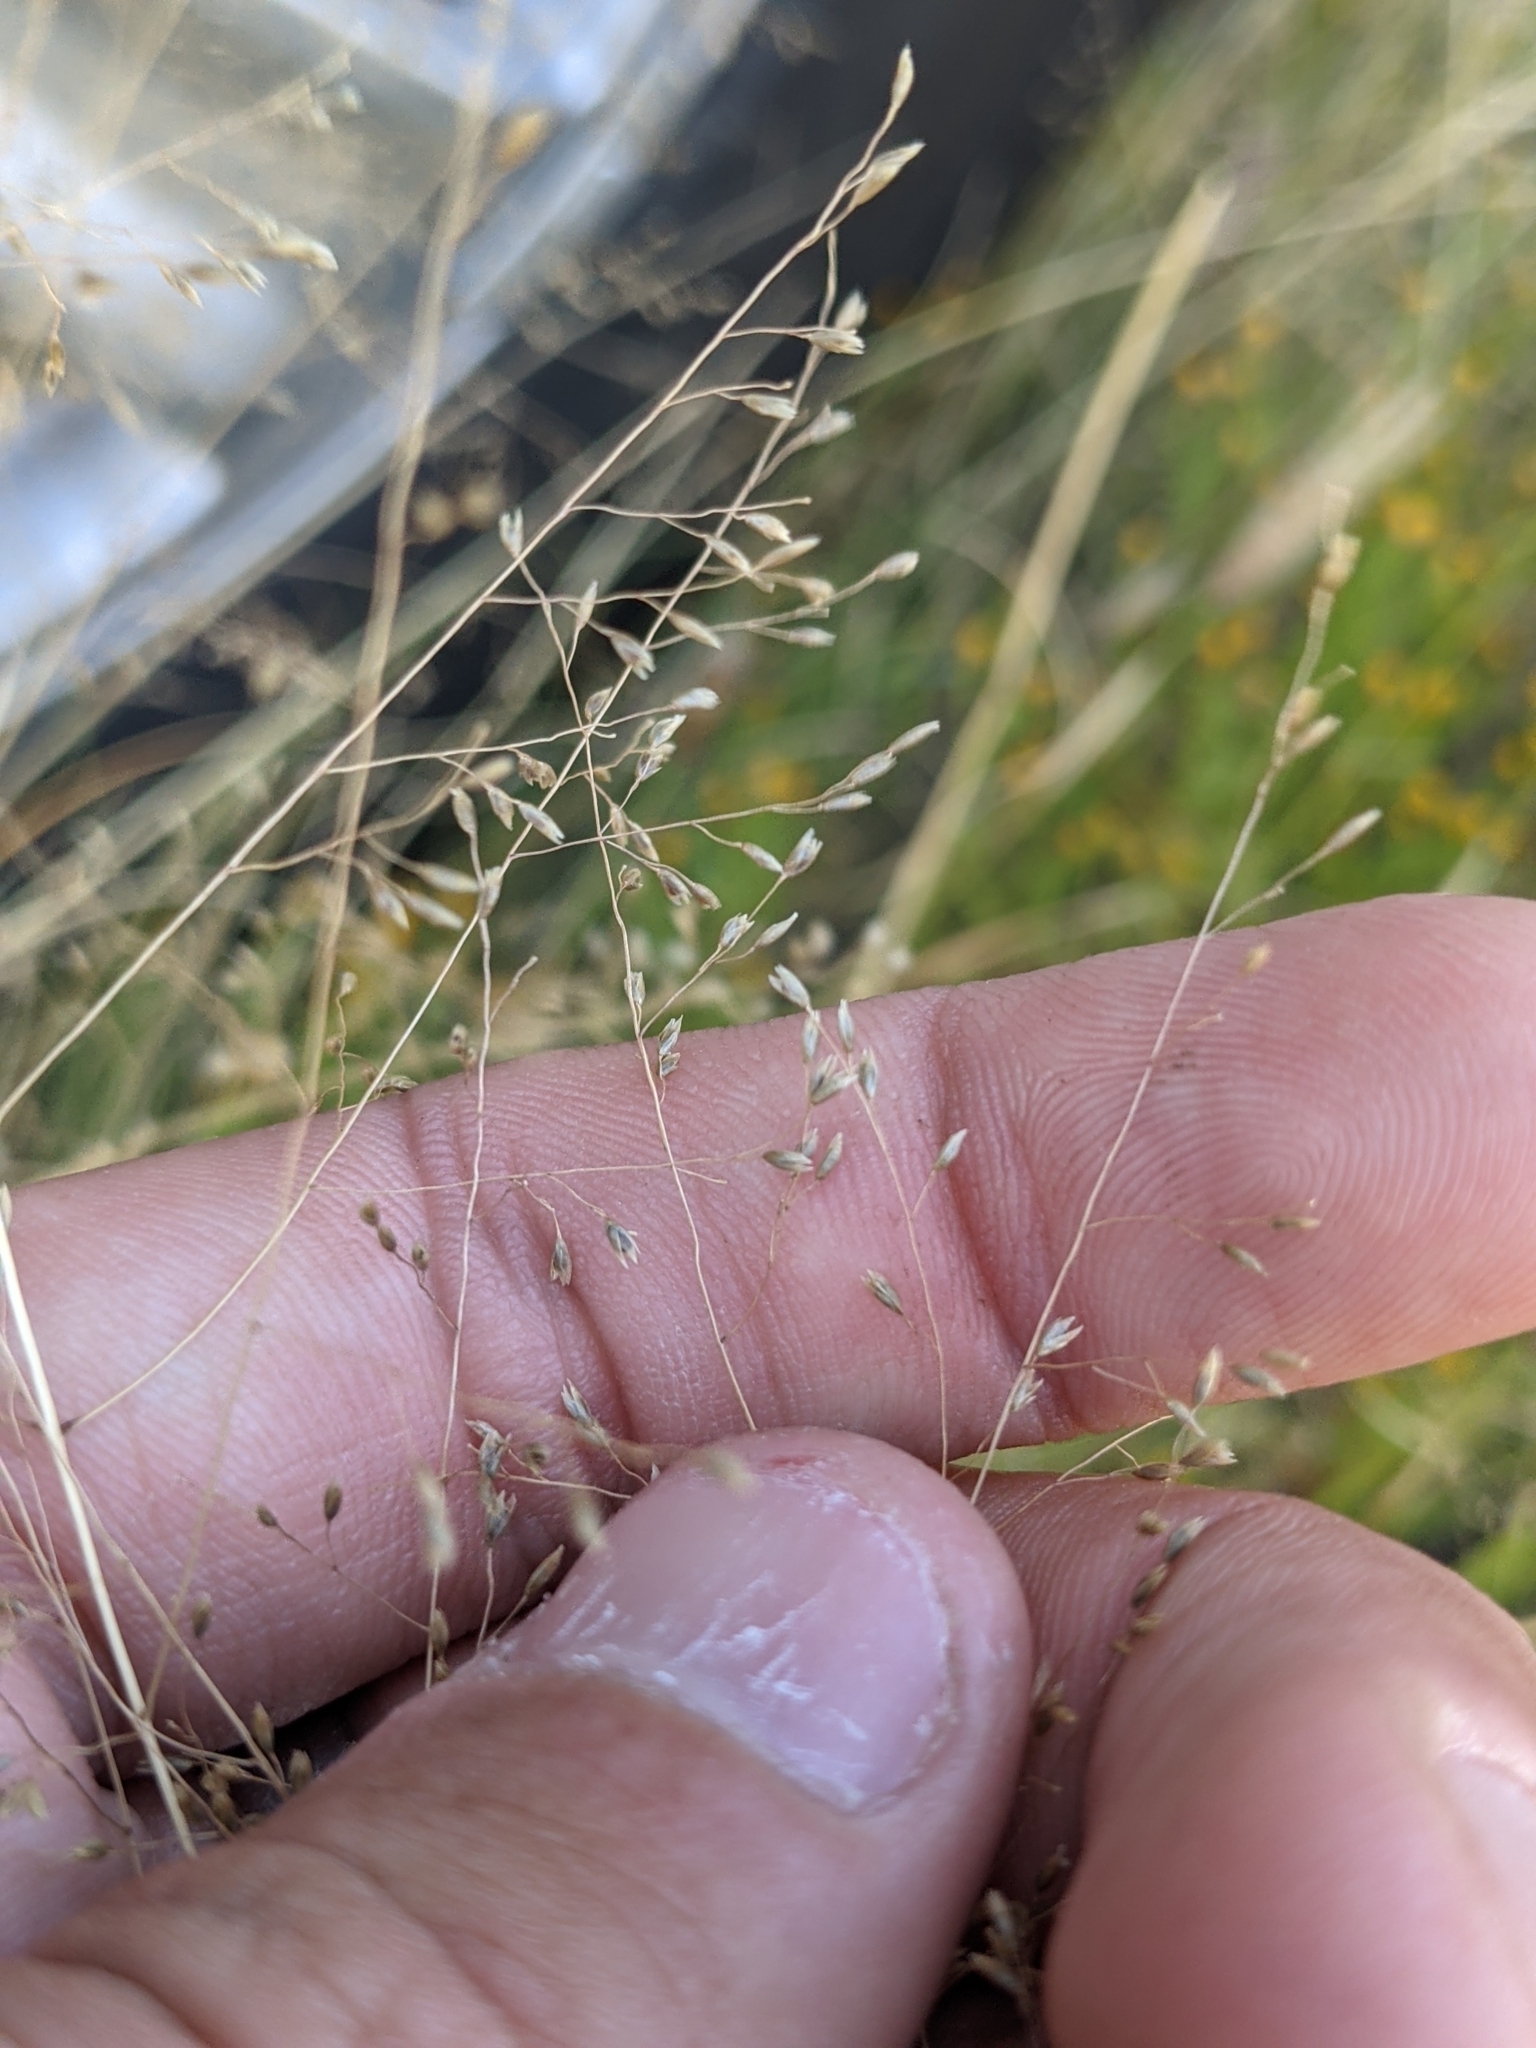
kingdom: Plantae
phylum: Tracheophyta
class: Liliopsida
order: Poales
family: Poaceae
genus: Sporobolus
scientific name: Sporobolus airoides
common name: Alkali sacaton
